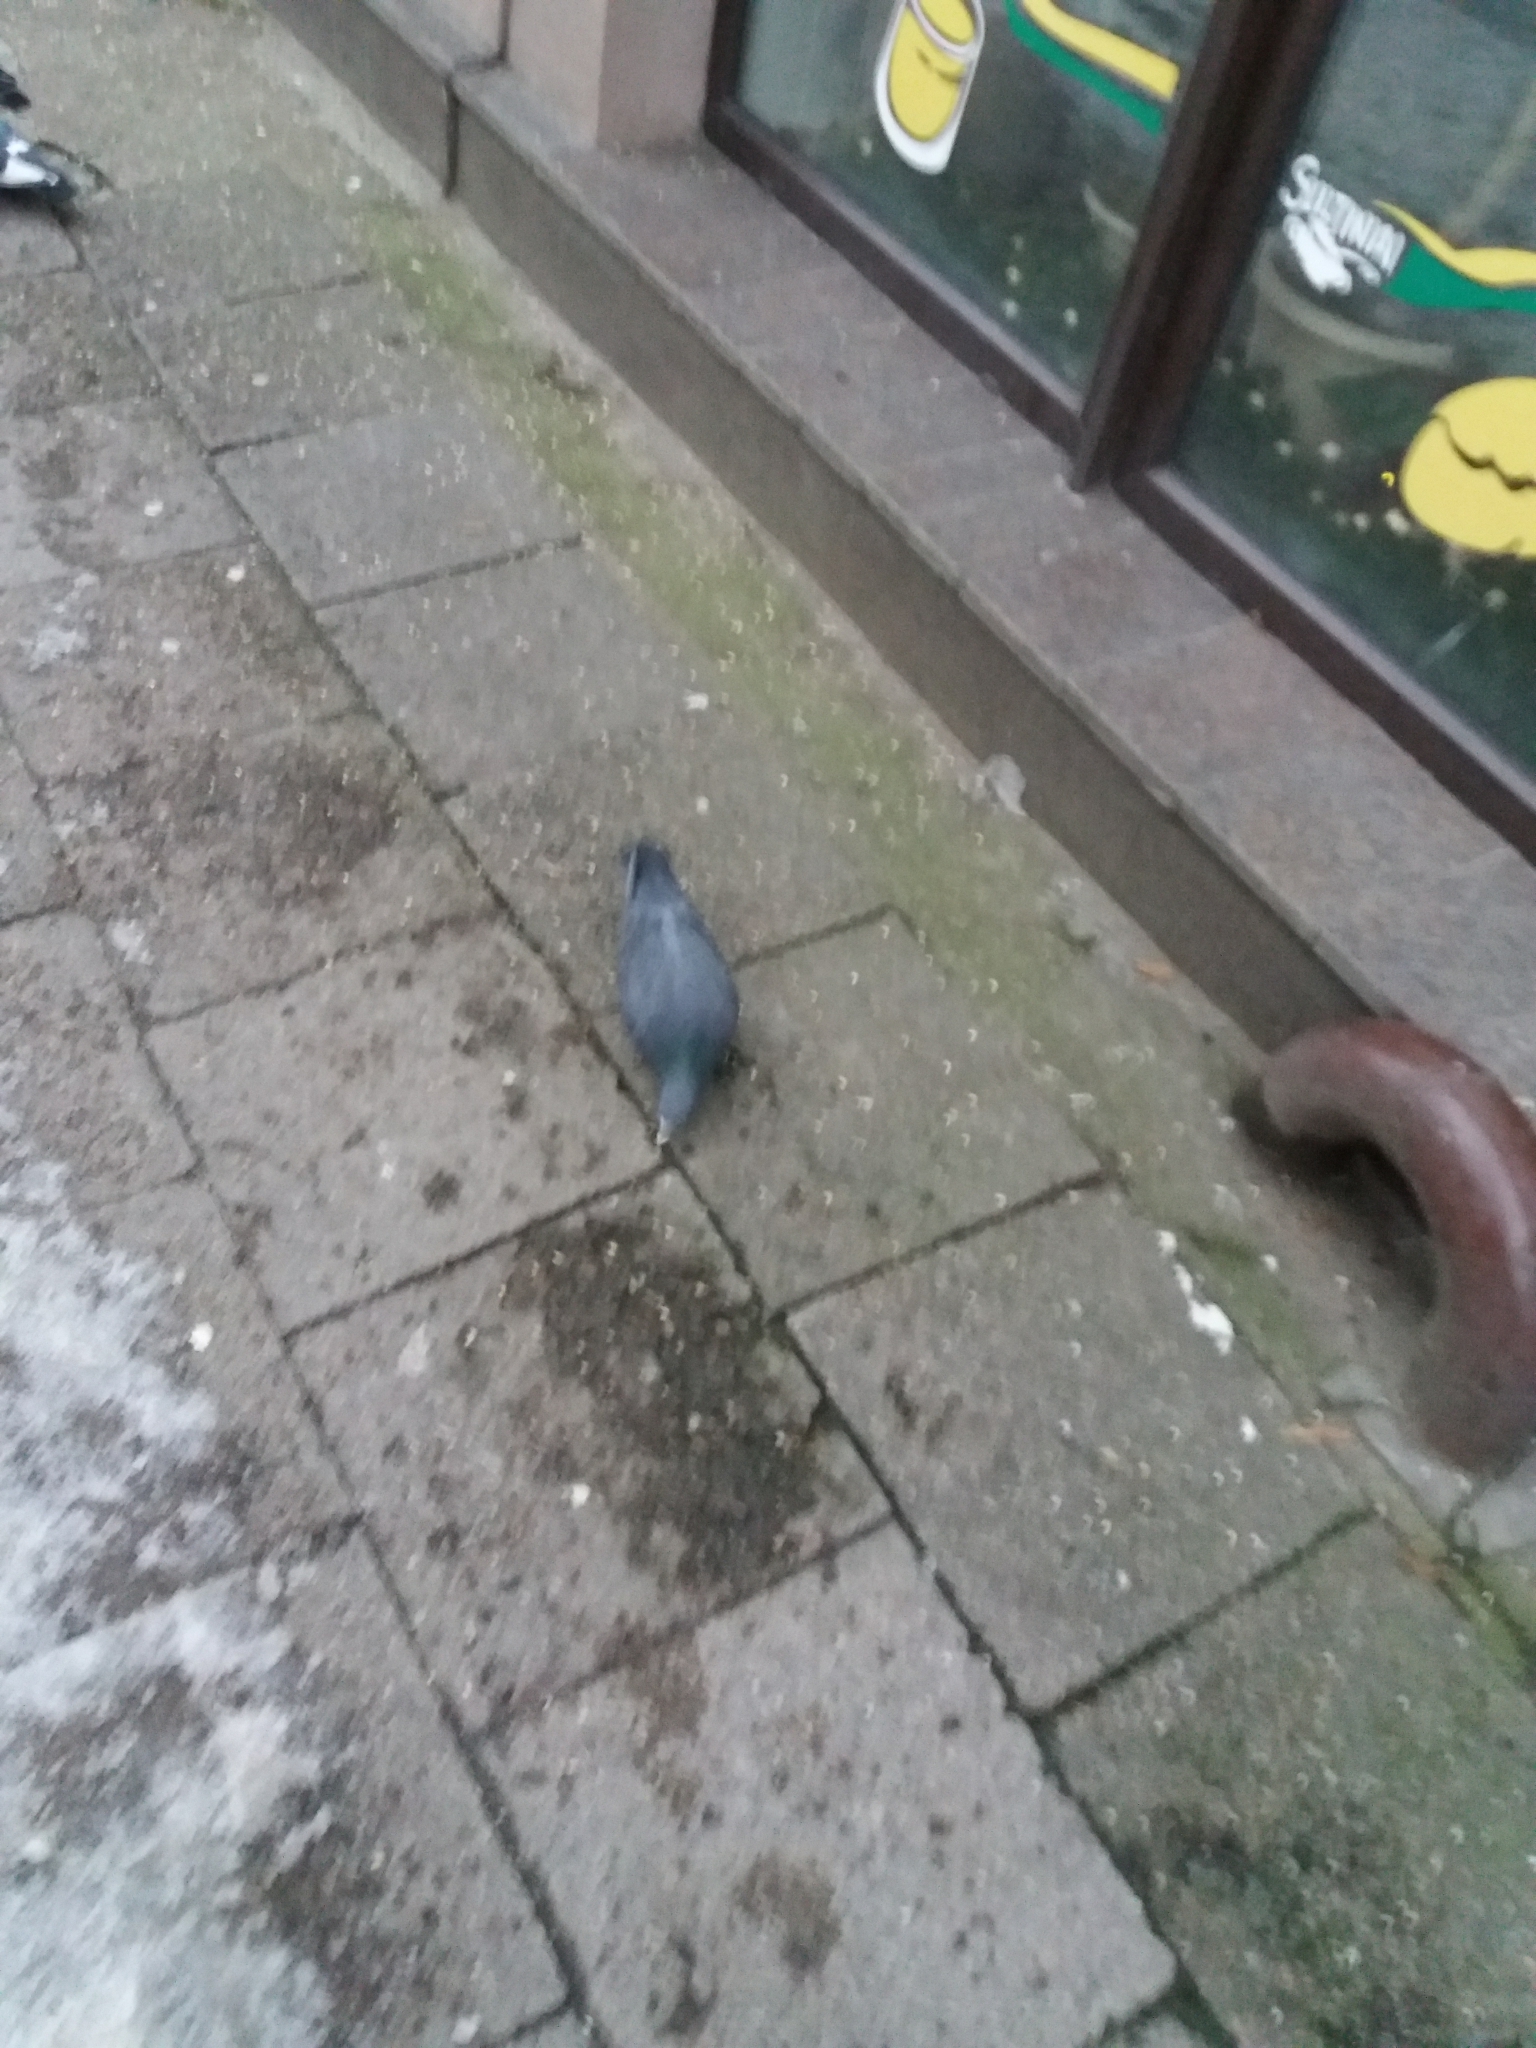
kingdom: Animalia
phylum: Chordata
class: Aves
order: Columbiformes
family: Columbidae
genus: Columba
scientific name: Columba livia
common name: Rock pigeon
